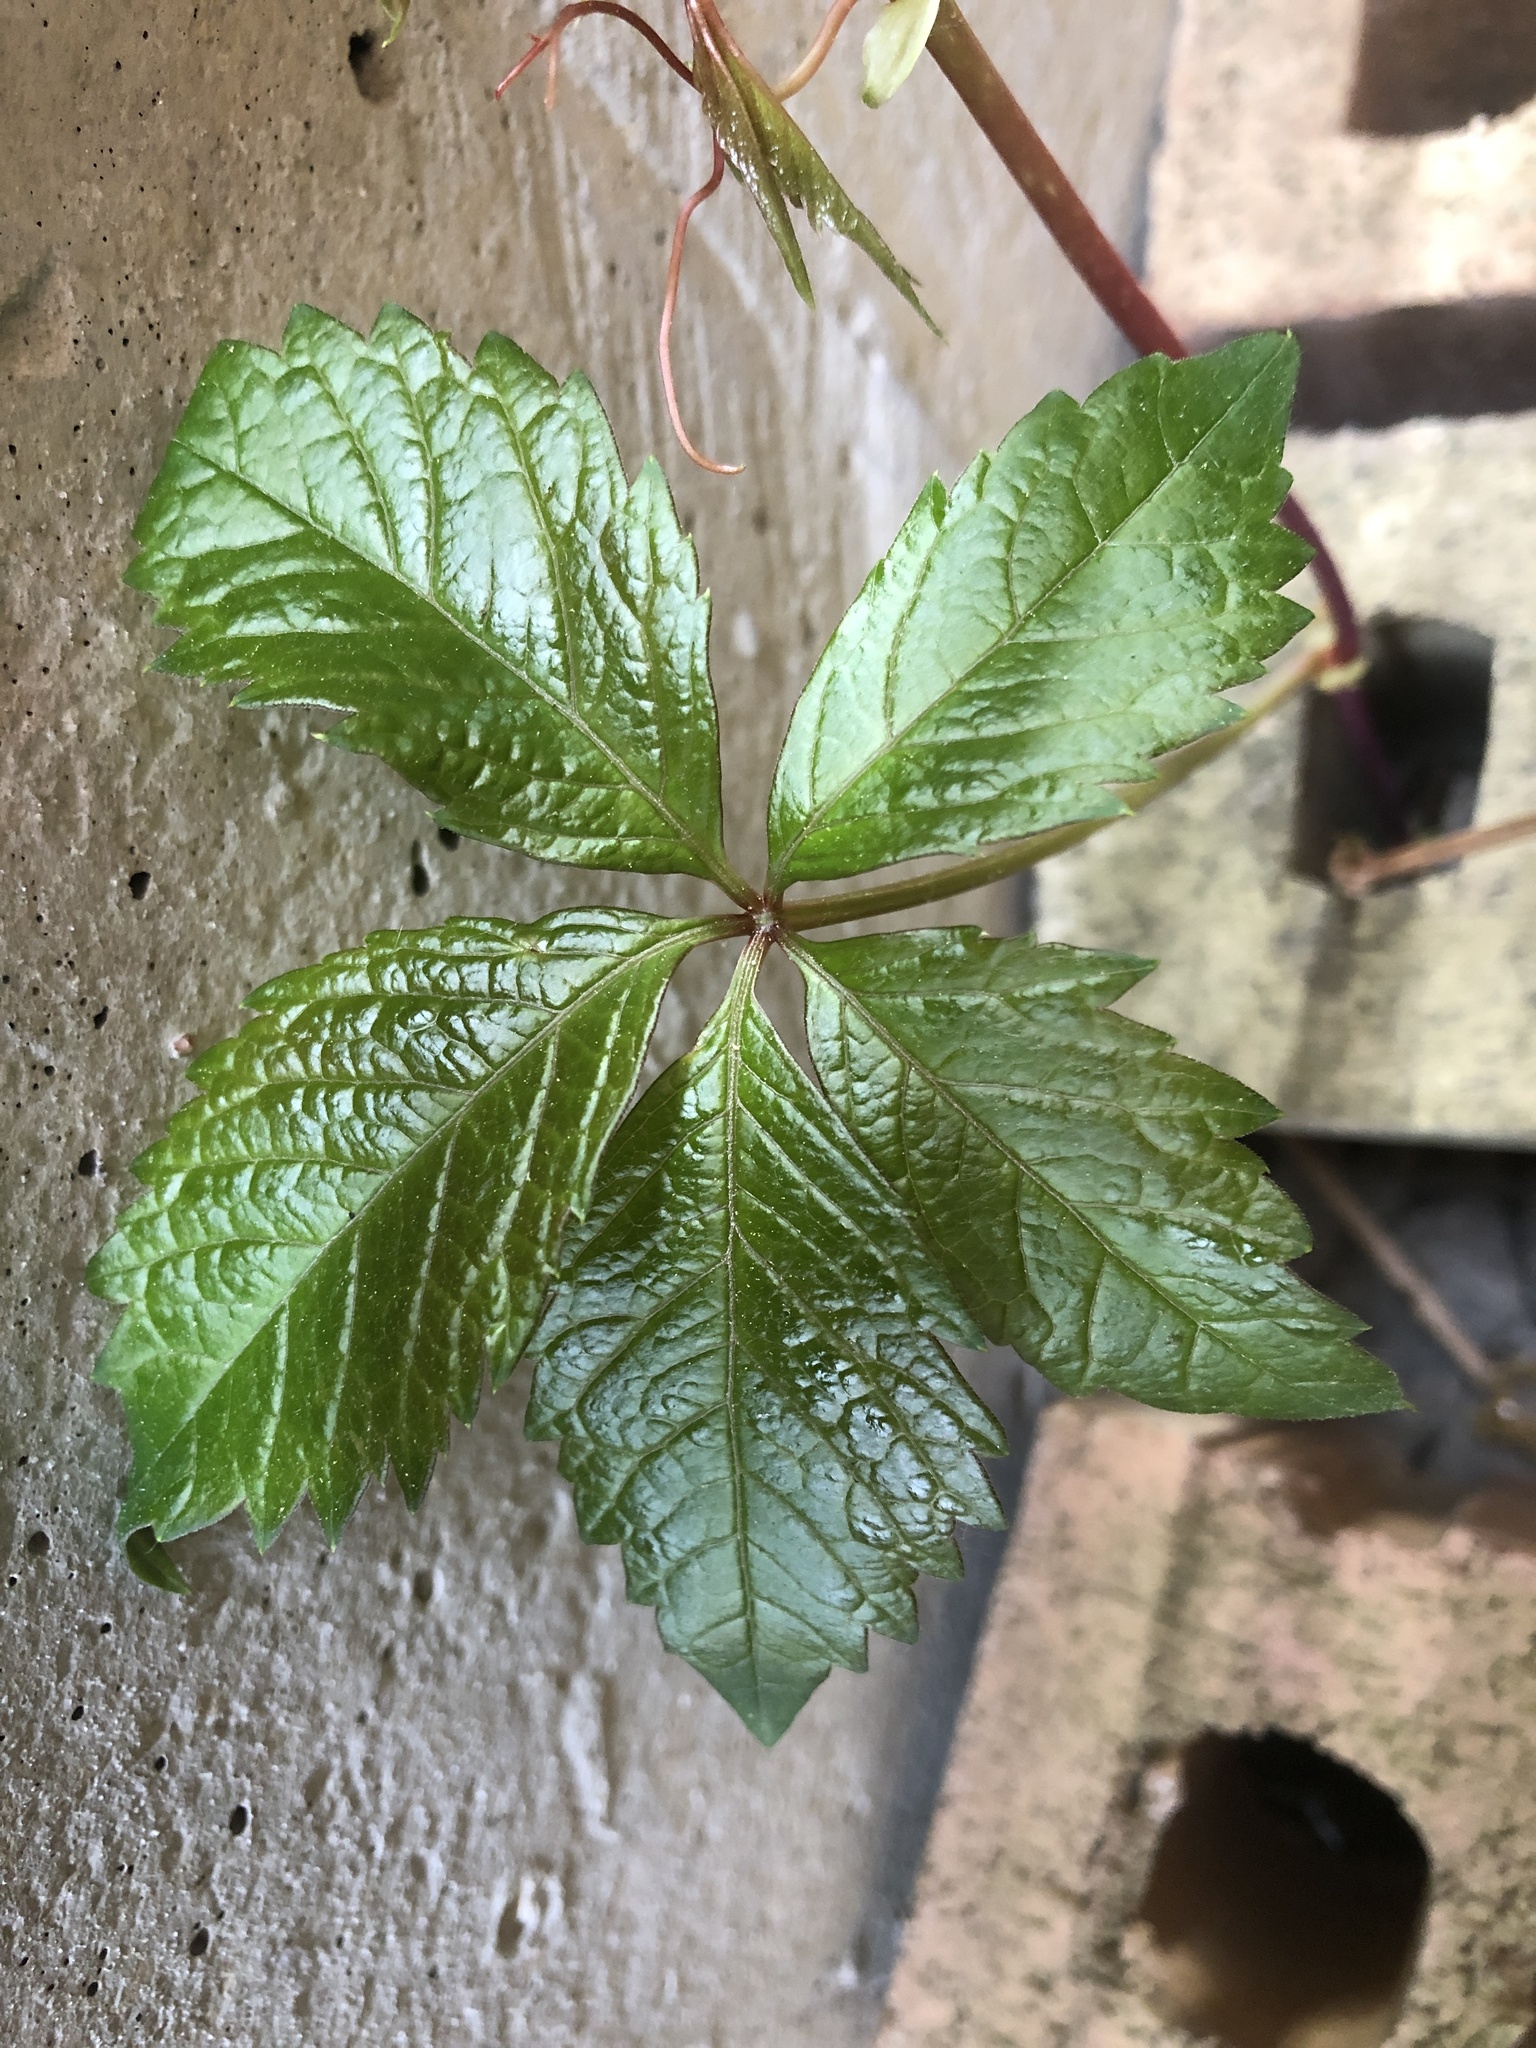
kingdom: Plantae
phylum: Tracheophyta
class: Magnoliopsida
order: Vitales
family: Vitaceae
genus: Parthenocissus
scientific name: Parthenocissus quinquefolia
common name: Virginia-creeper
